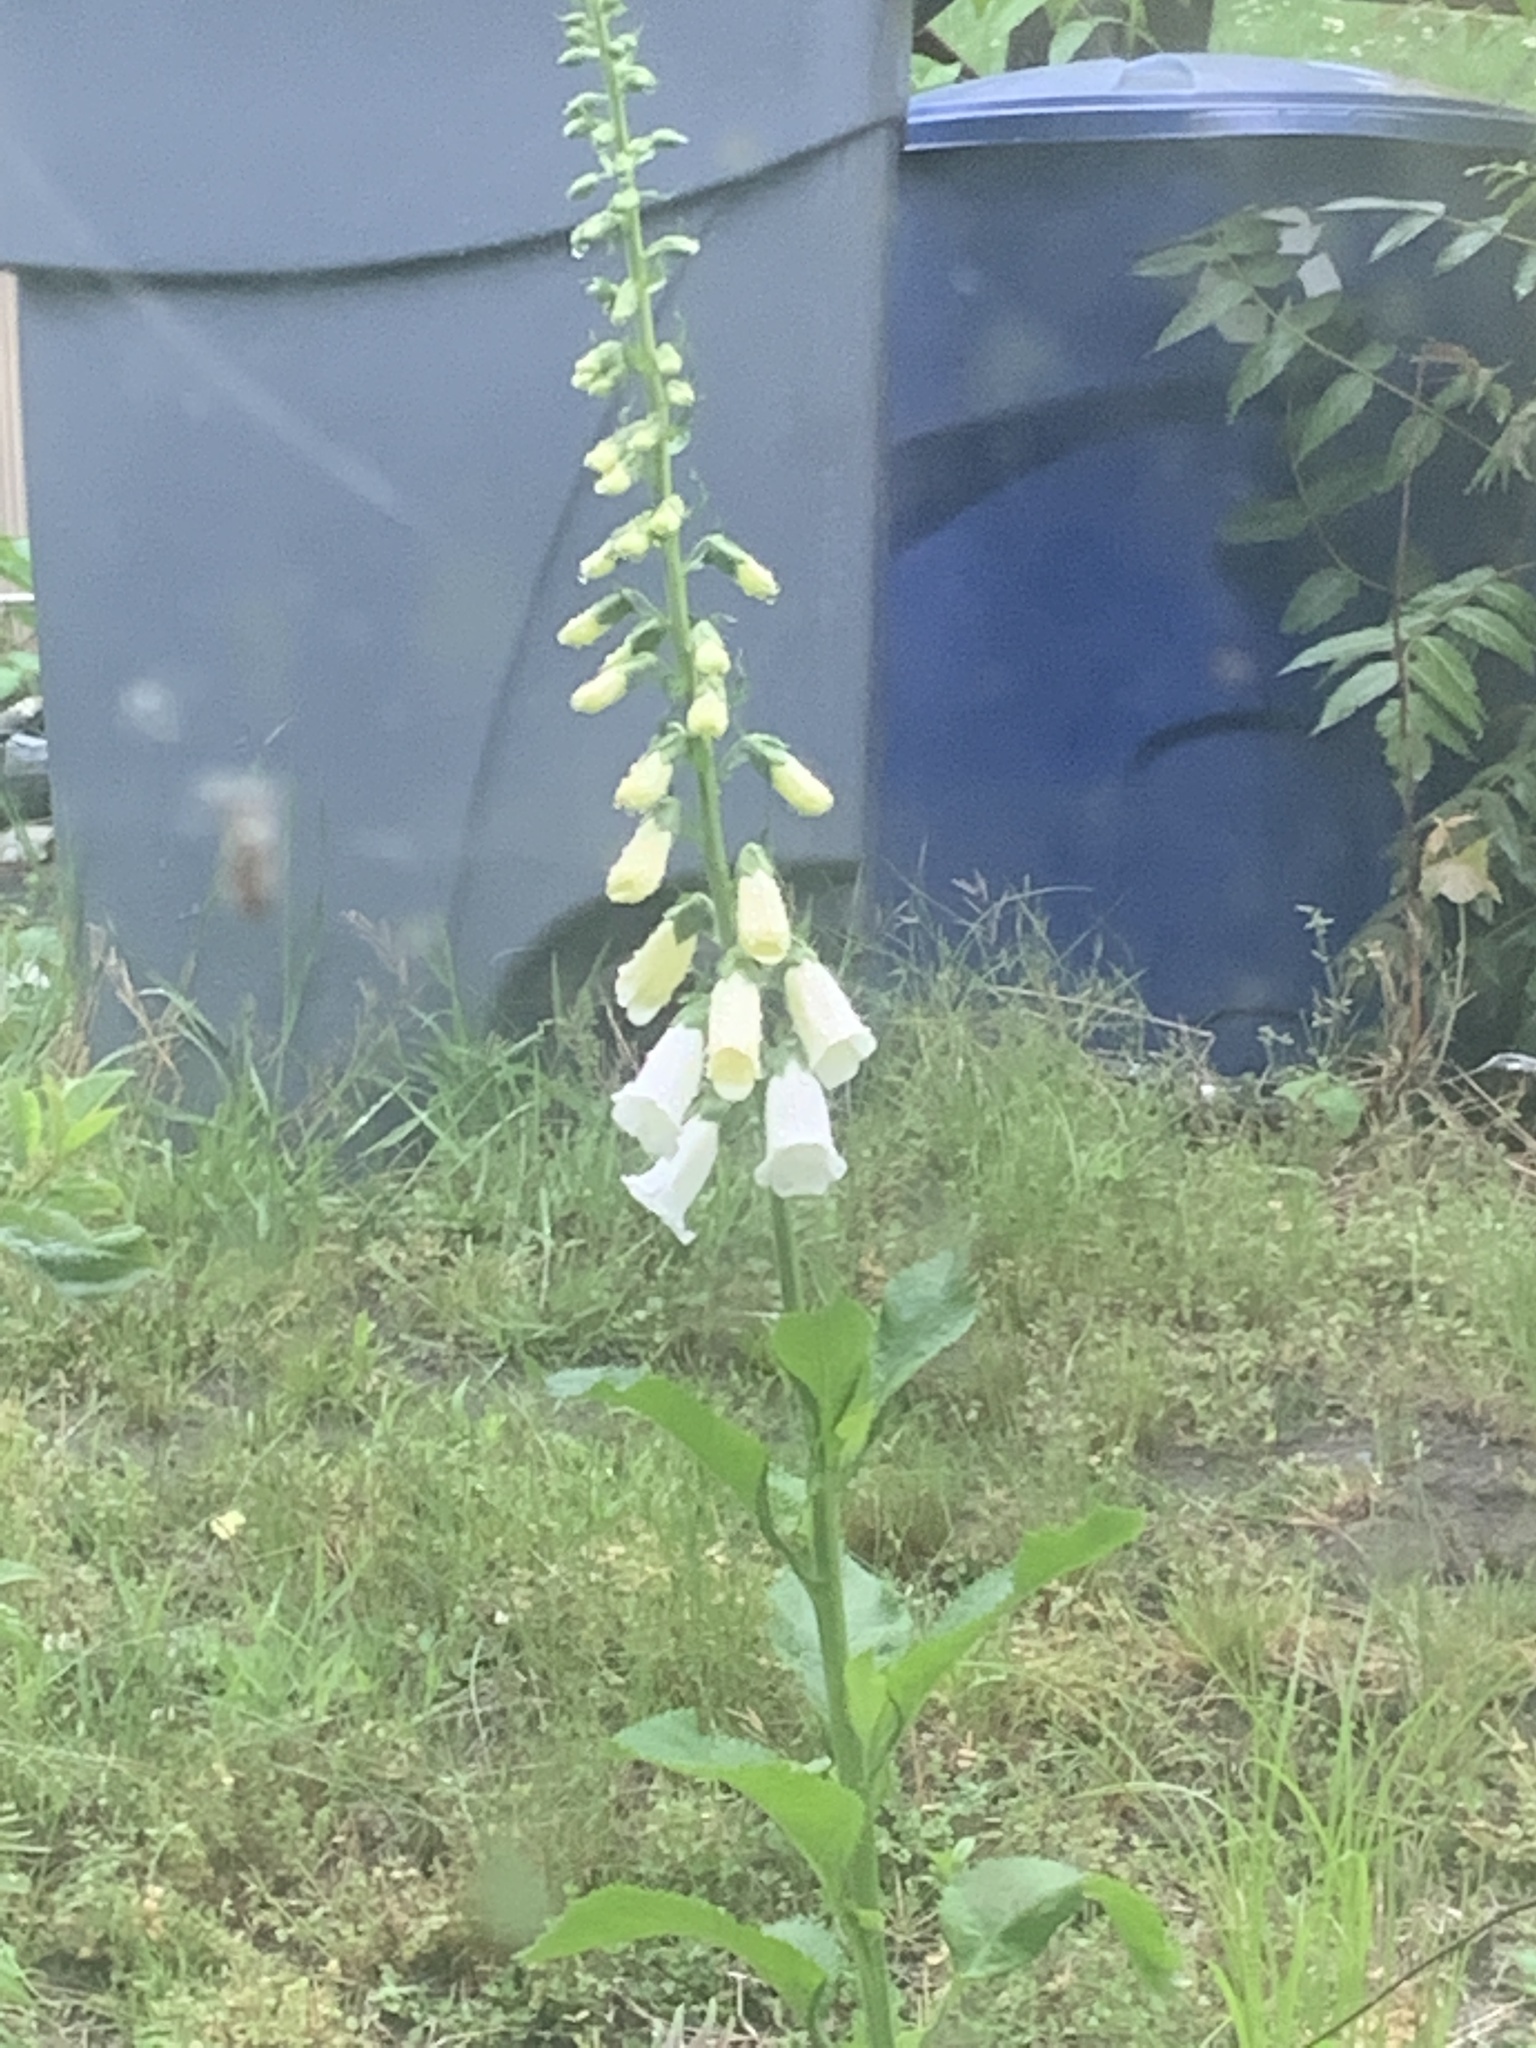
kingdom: Plantae
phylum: Tracheophyta
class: Magnoliopsida
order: Lamiales
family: Plantaginaceae
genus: Digitalis
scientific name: Digitalis purpurea
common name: Foxglove
